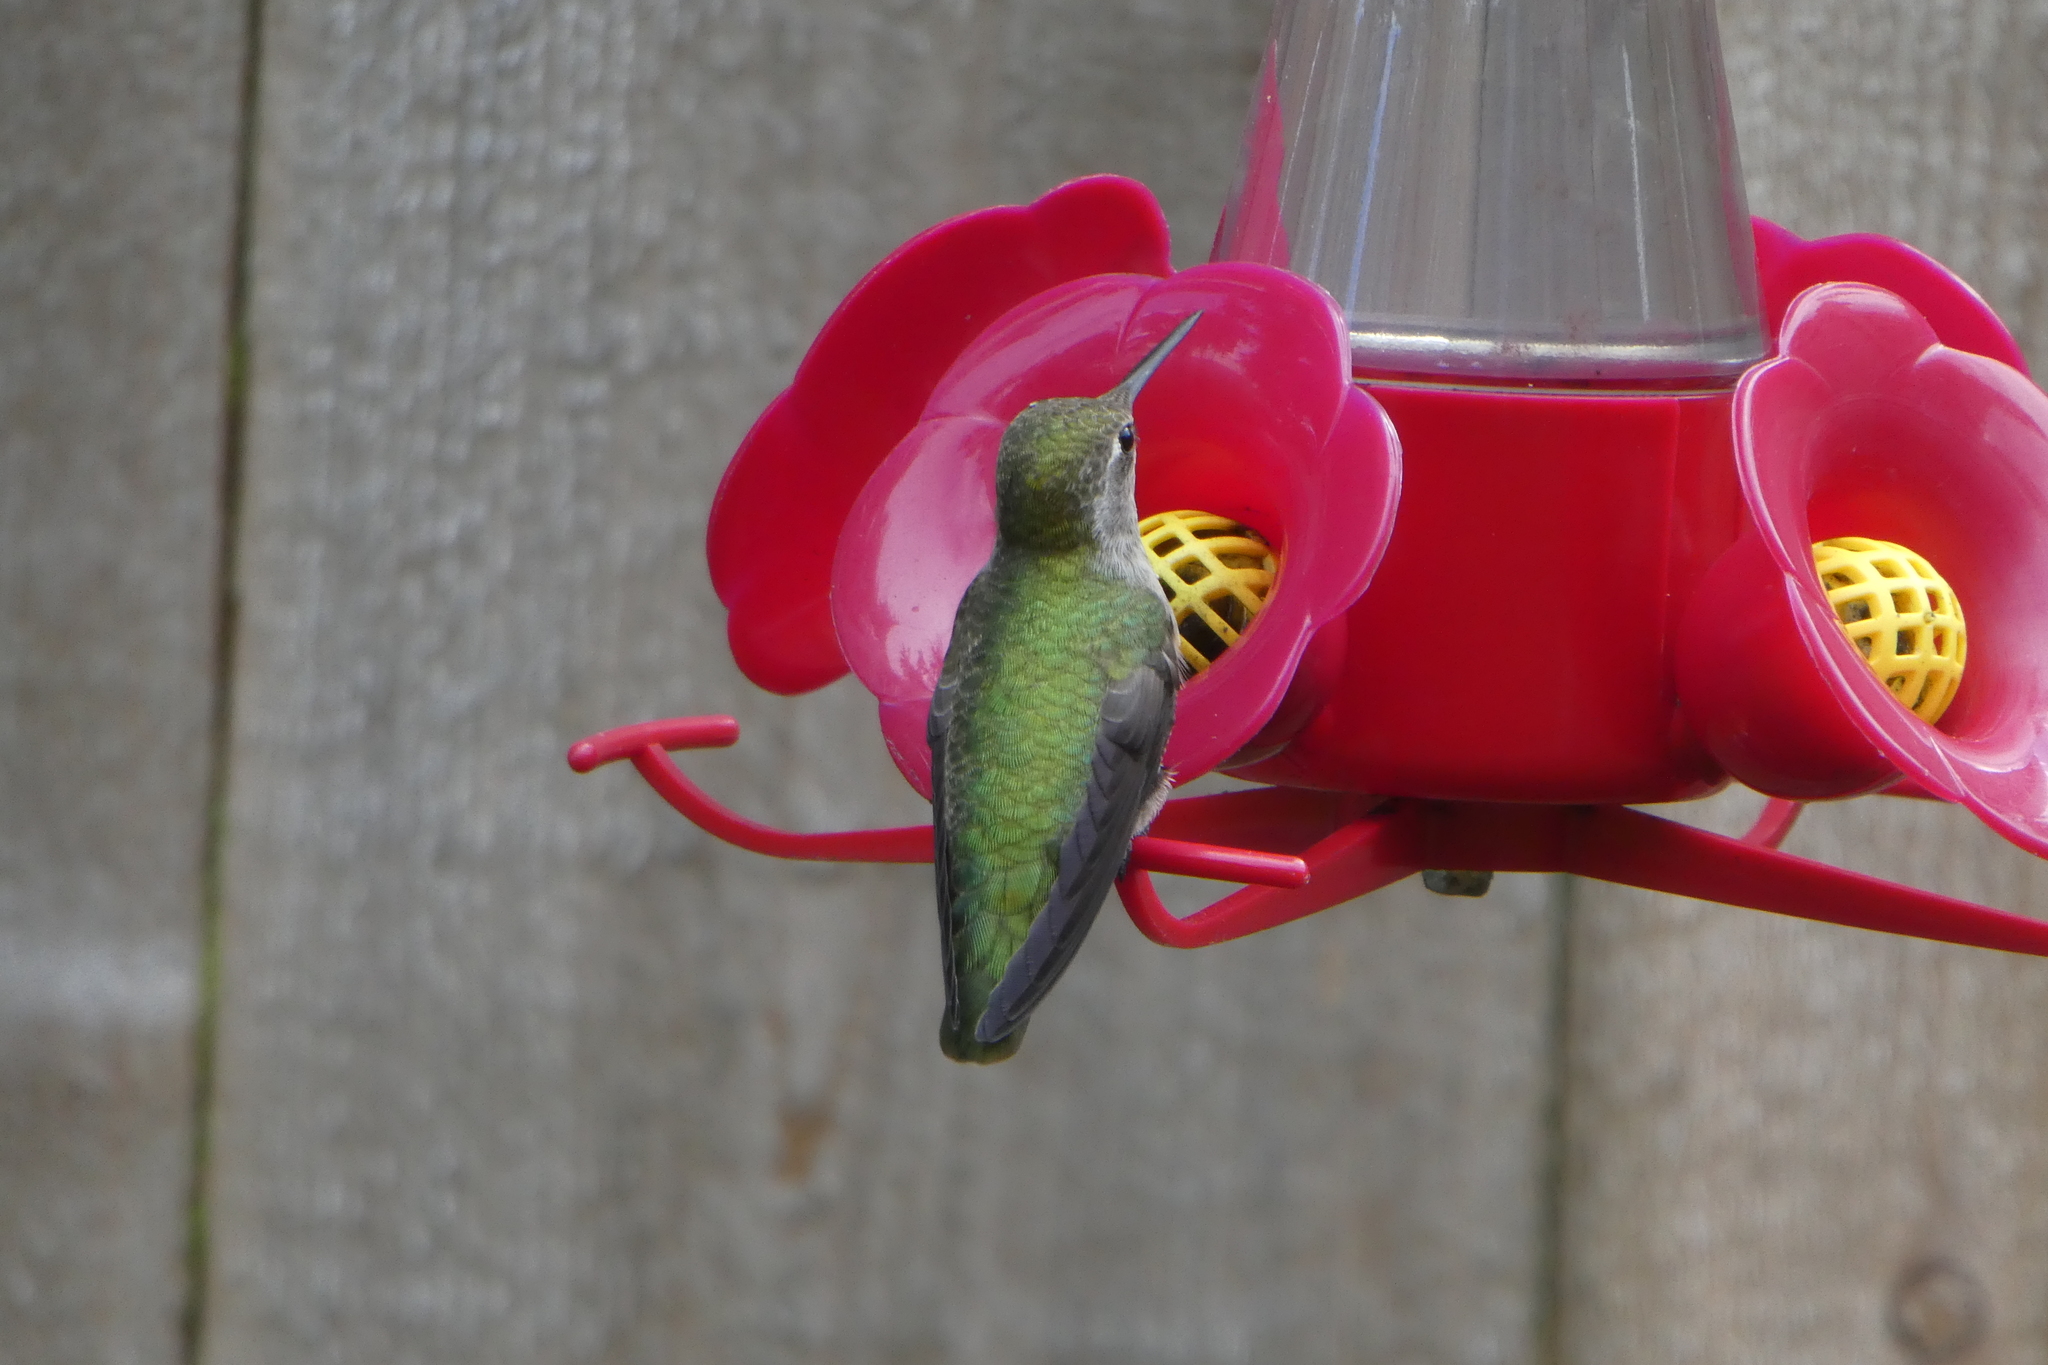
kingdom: Animalia
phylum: Chordata
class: Aves
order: Apodiformes
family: Trochilidae
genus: Calypte
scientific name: Calypte anna
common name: Anna's hummingbird
